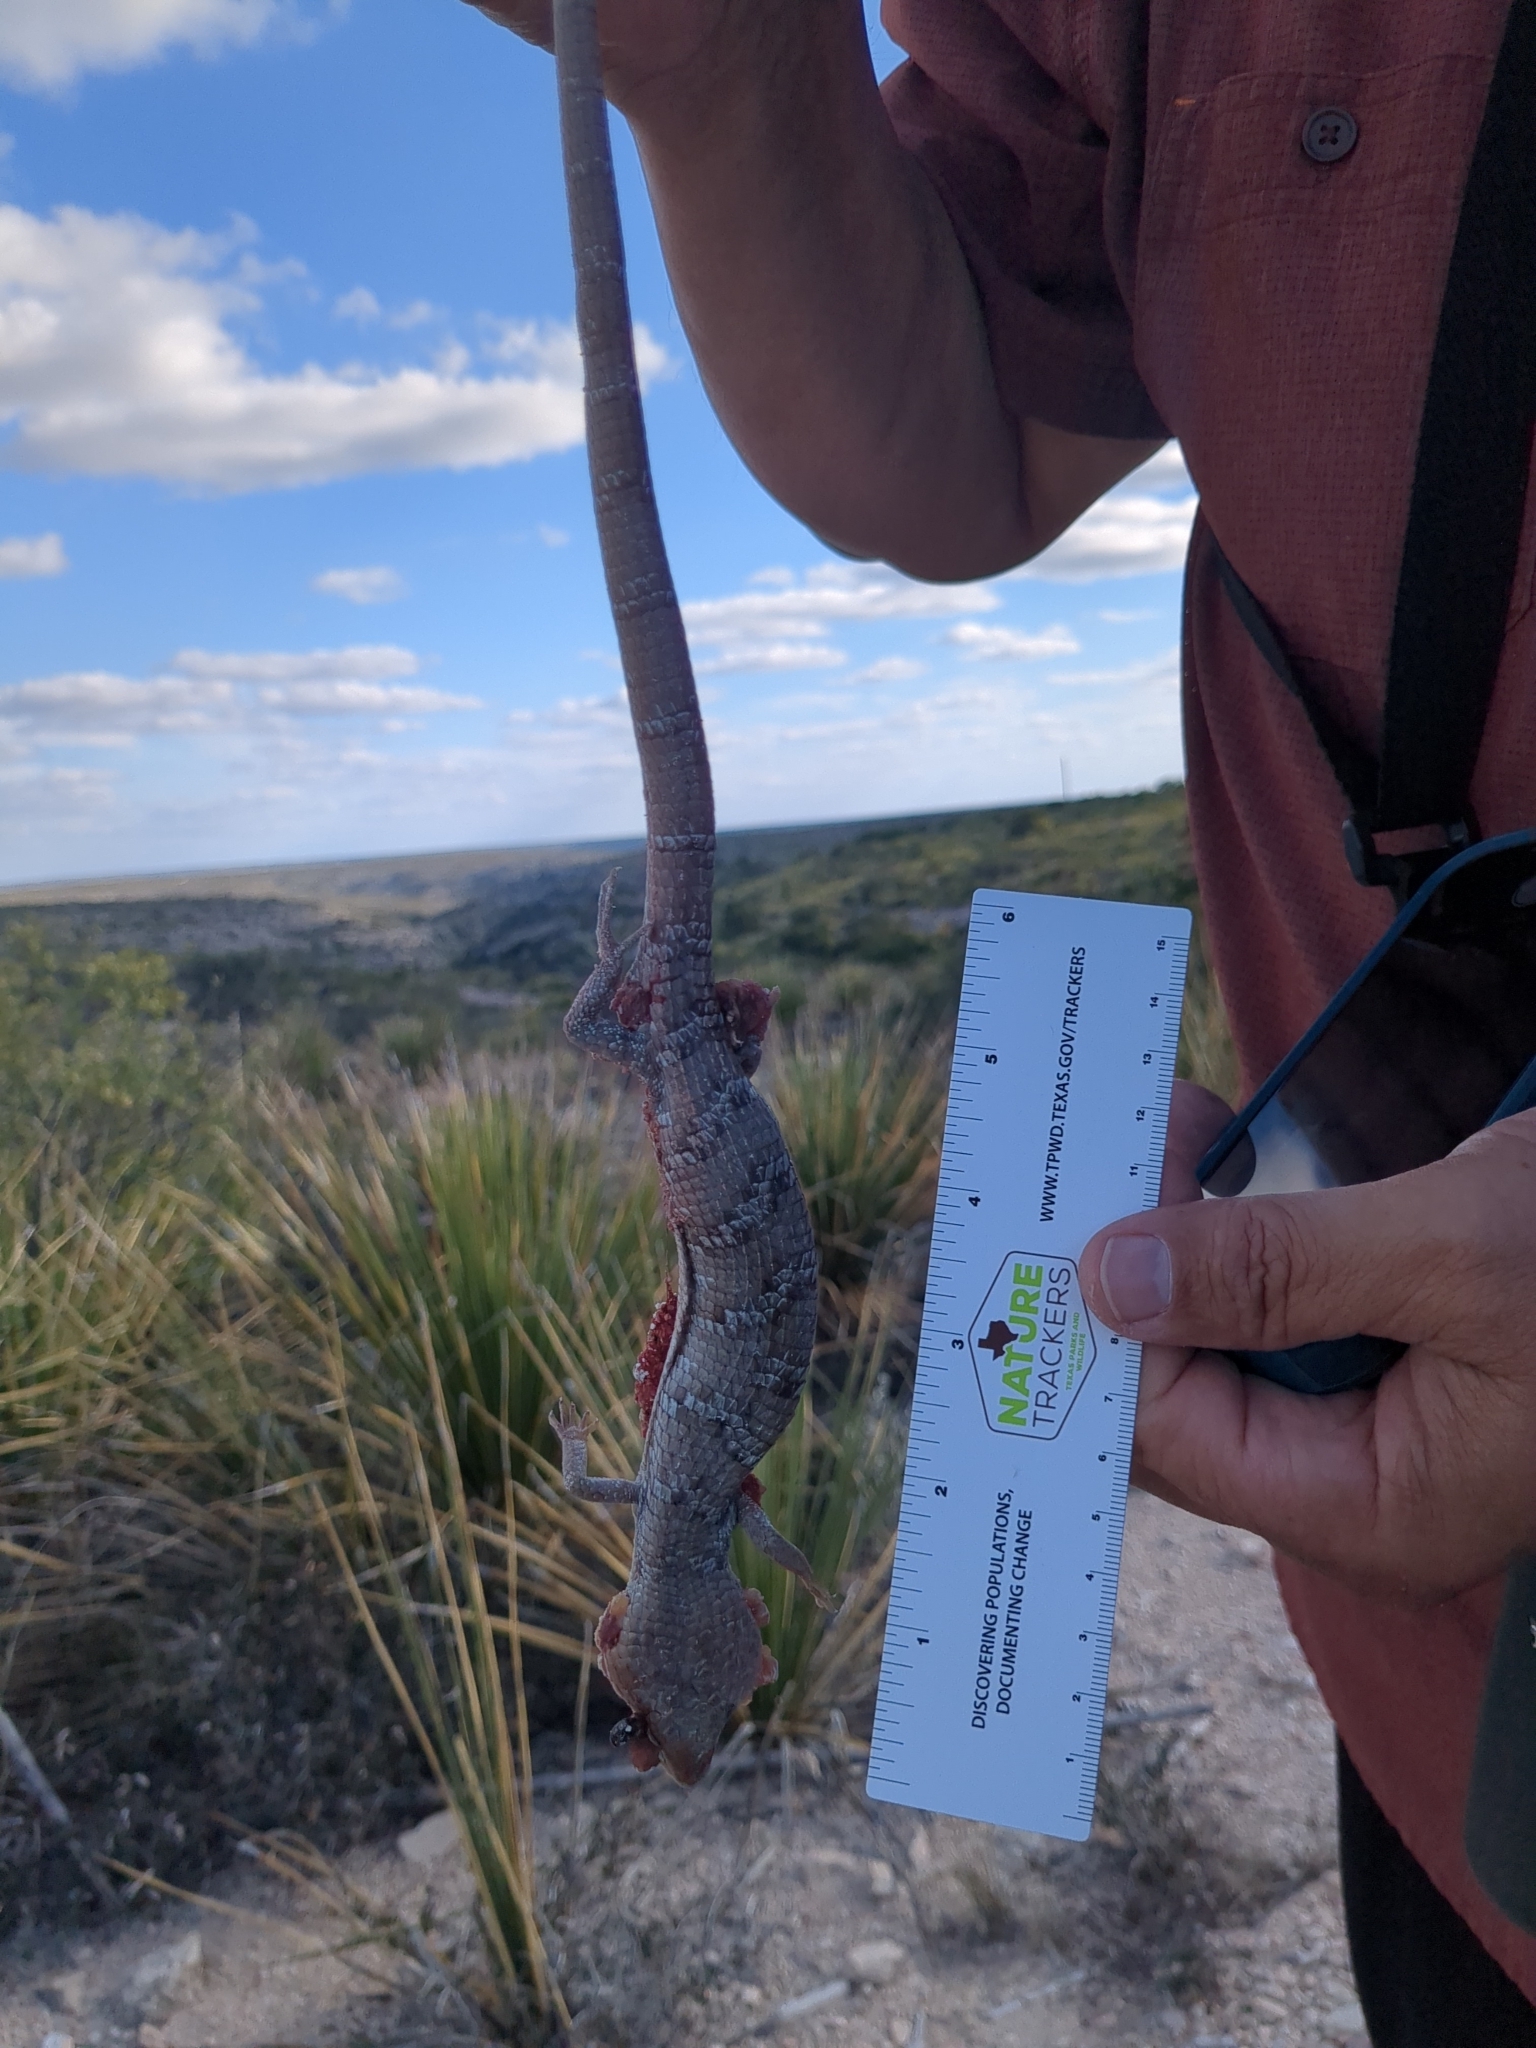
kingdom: Animalia
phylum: Chordata
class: Squamata
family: Anguidae
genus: Gerrhonotus
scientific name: Gerrhonotus infernalis
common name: Texas alligator lizard
